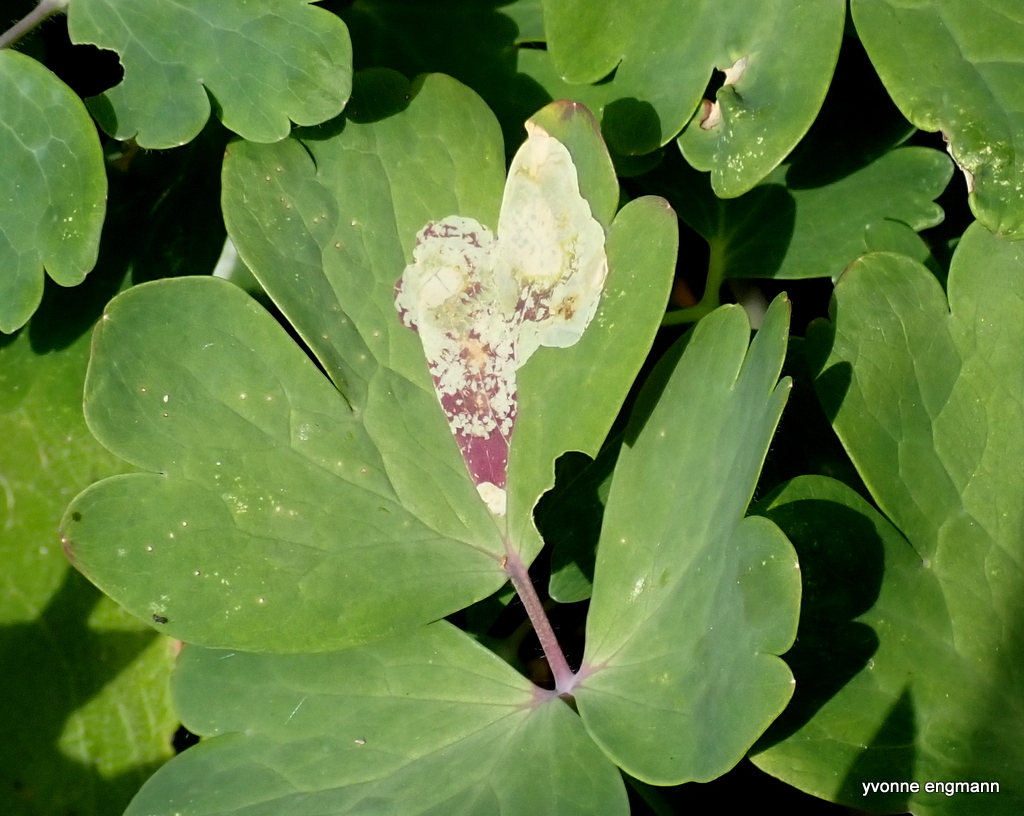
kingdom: Animalia
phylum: Arthropoda
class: Insecta
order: Diptera
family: Agromyzidae
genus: Phytomyza
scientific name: Phytomyza aquilegiae
